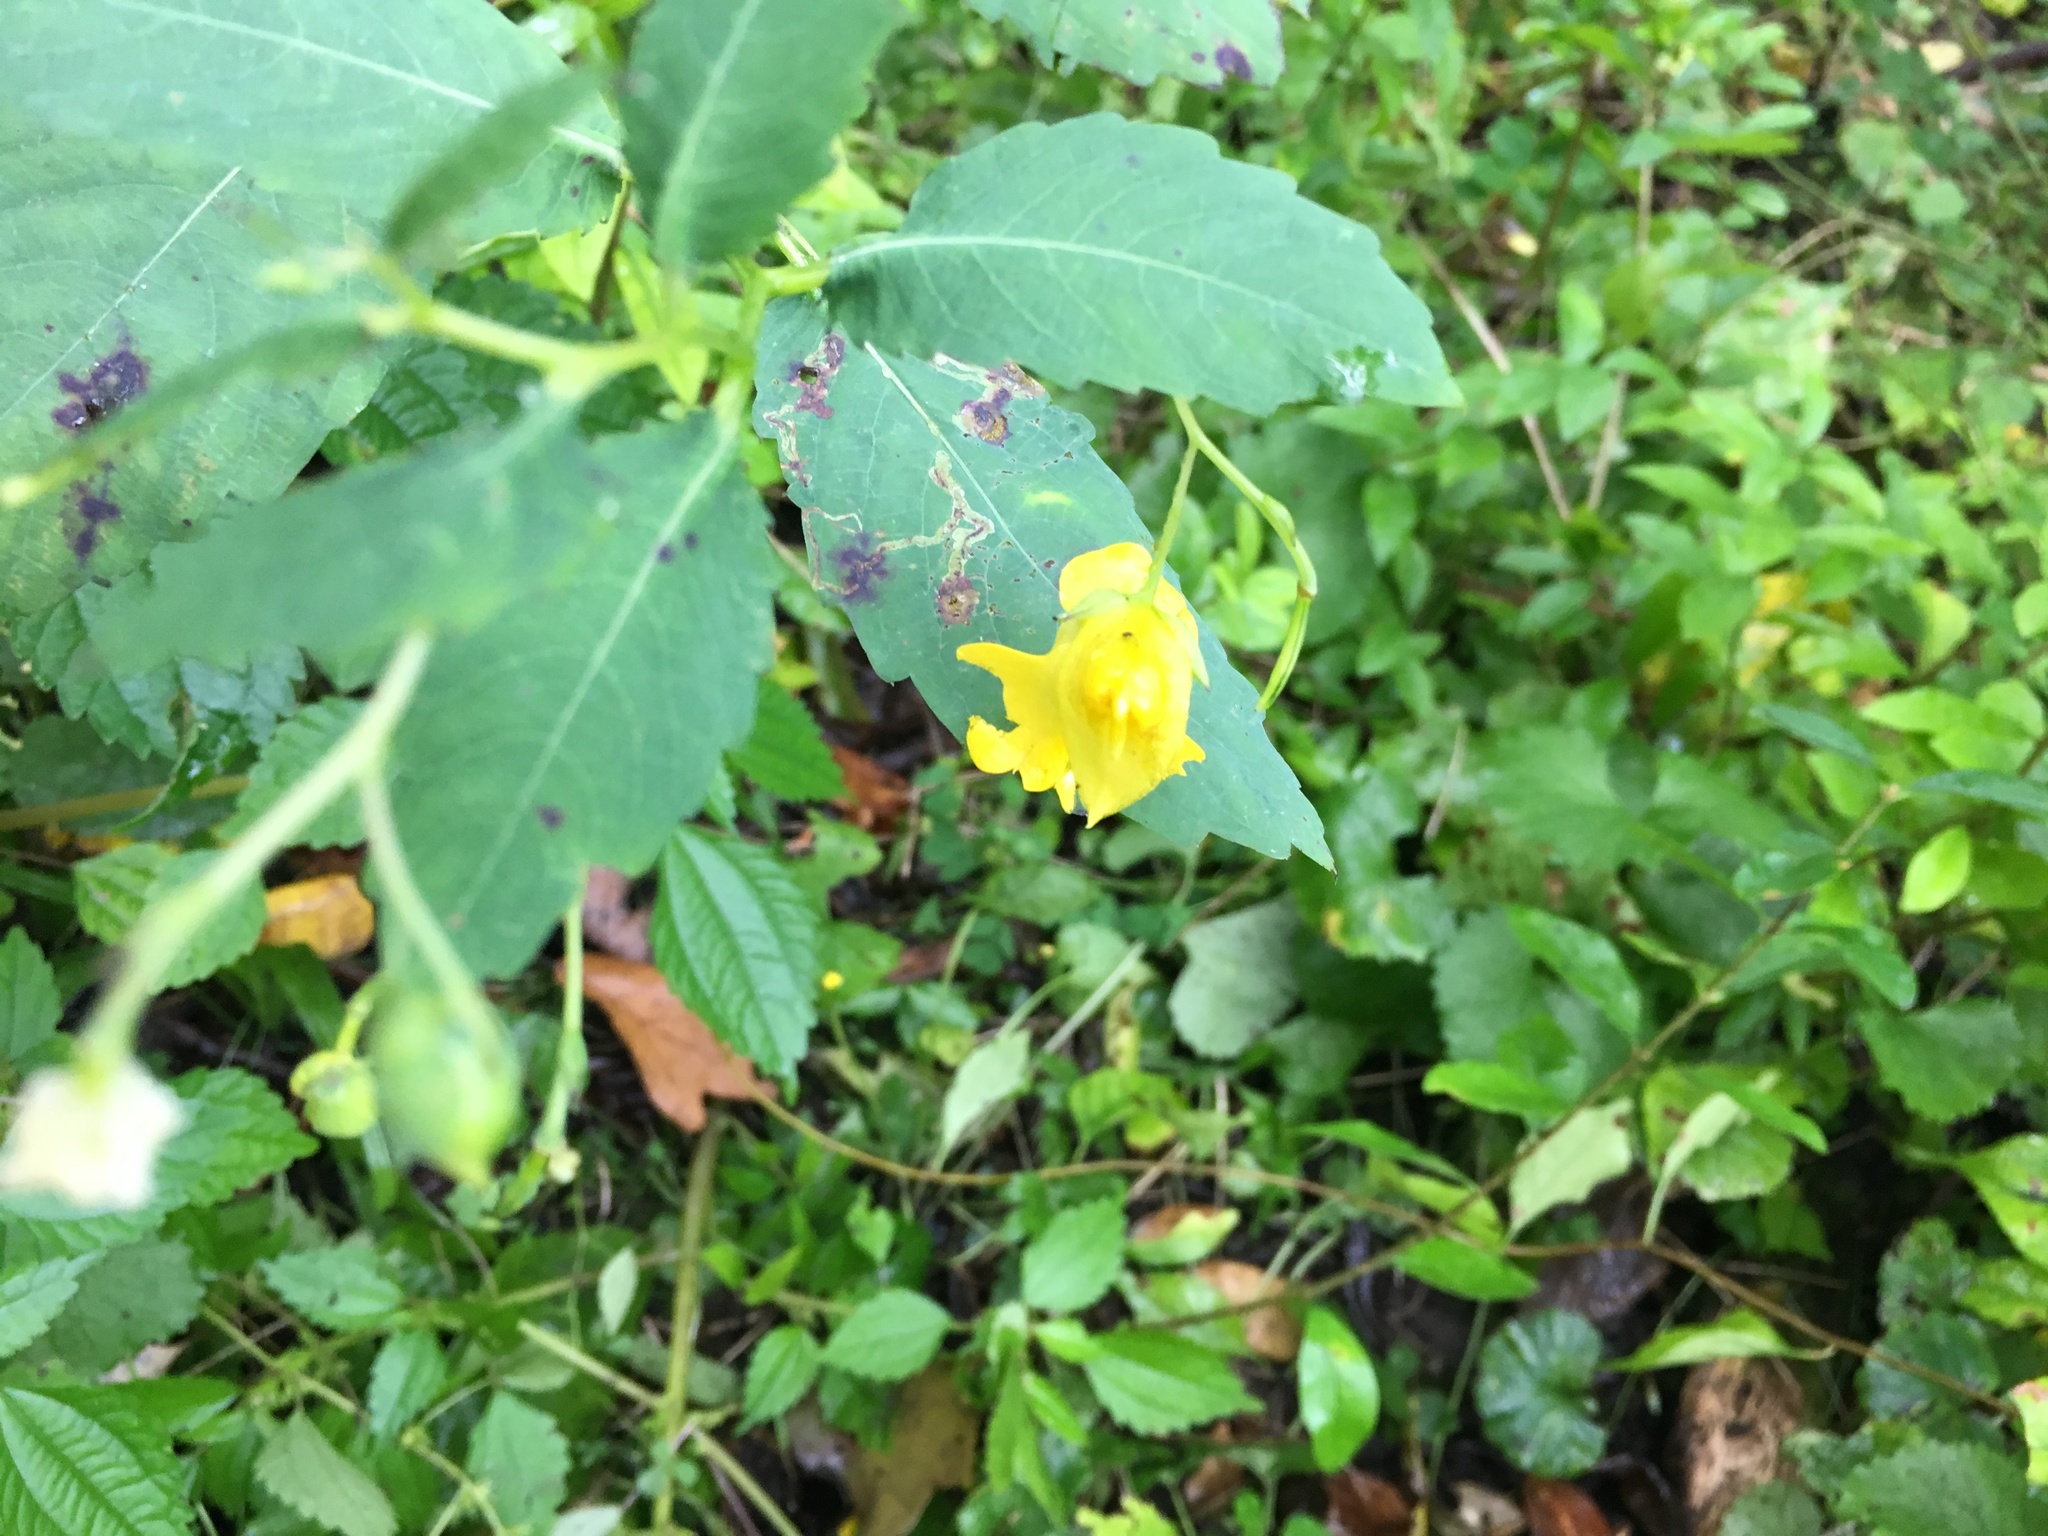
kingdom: Plantae
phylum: Tracheophyta
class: Magnoliopsida
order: Ericales
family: Balsaminaceae
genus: Impatiens
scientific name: Impatiens pallida
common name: Pale snapweed
